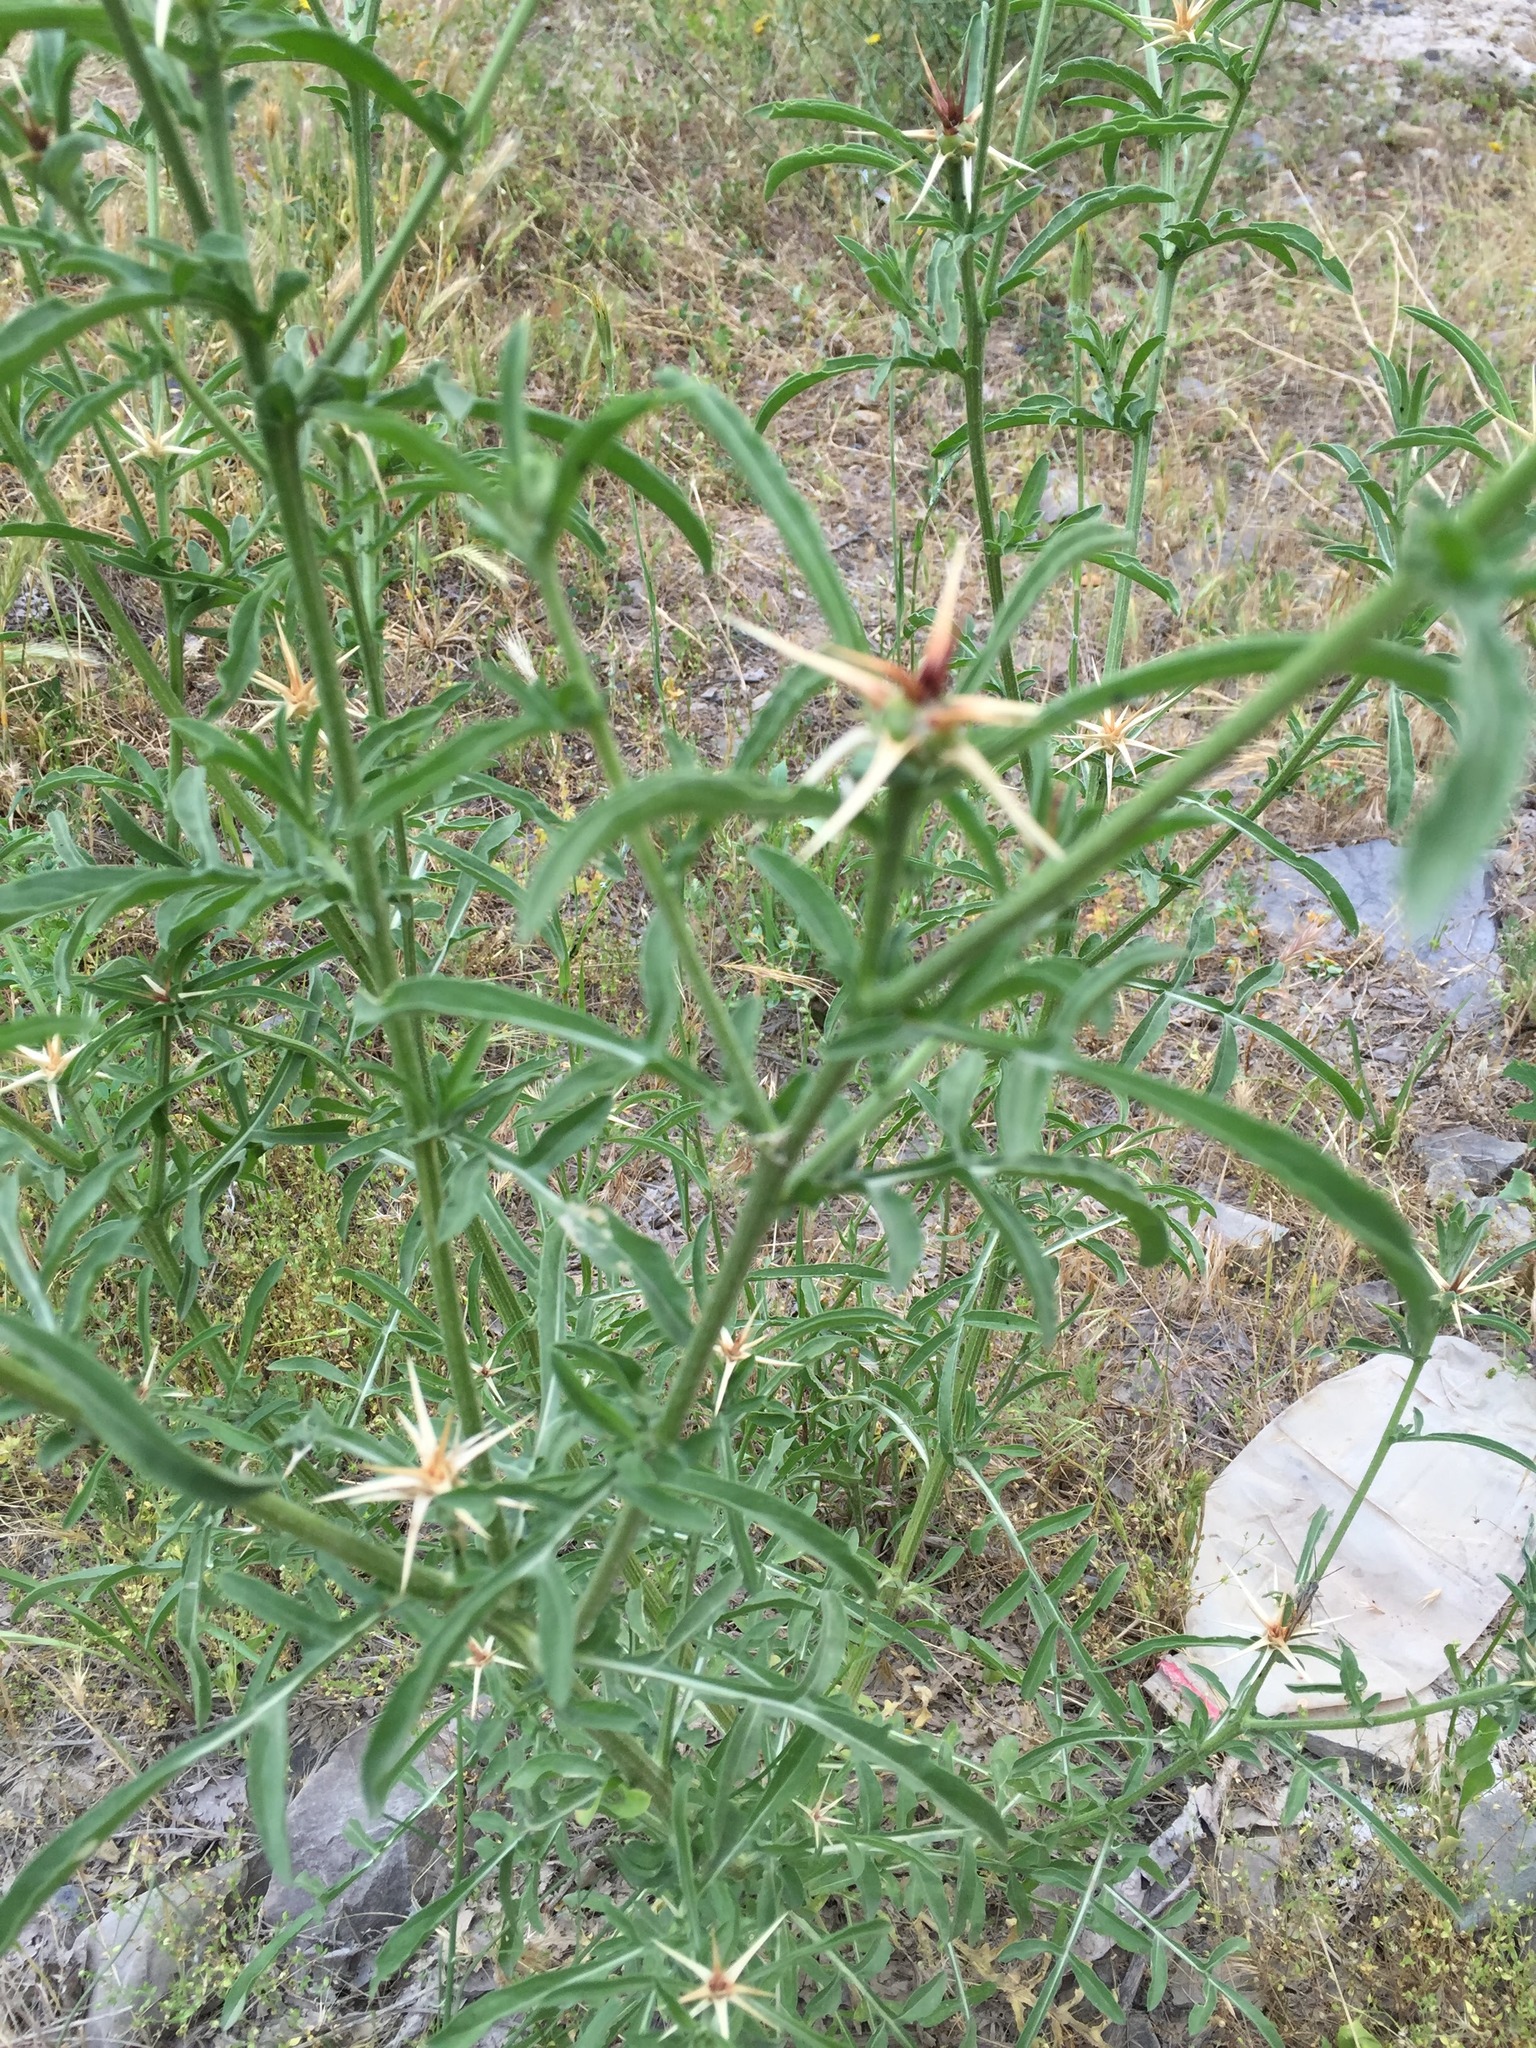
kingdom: Plantae
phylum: Tracheophyta
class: Magnoliopsida
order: Asterales
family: Asteraceae
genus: Centaurea
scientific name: Centaurea iberica
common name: Iberian knapweed
